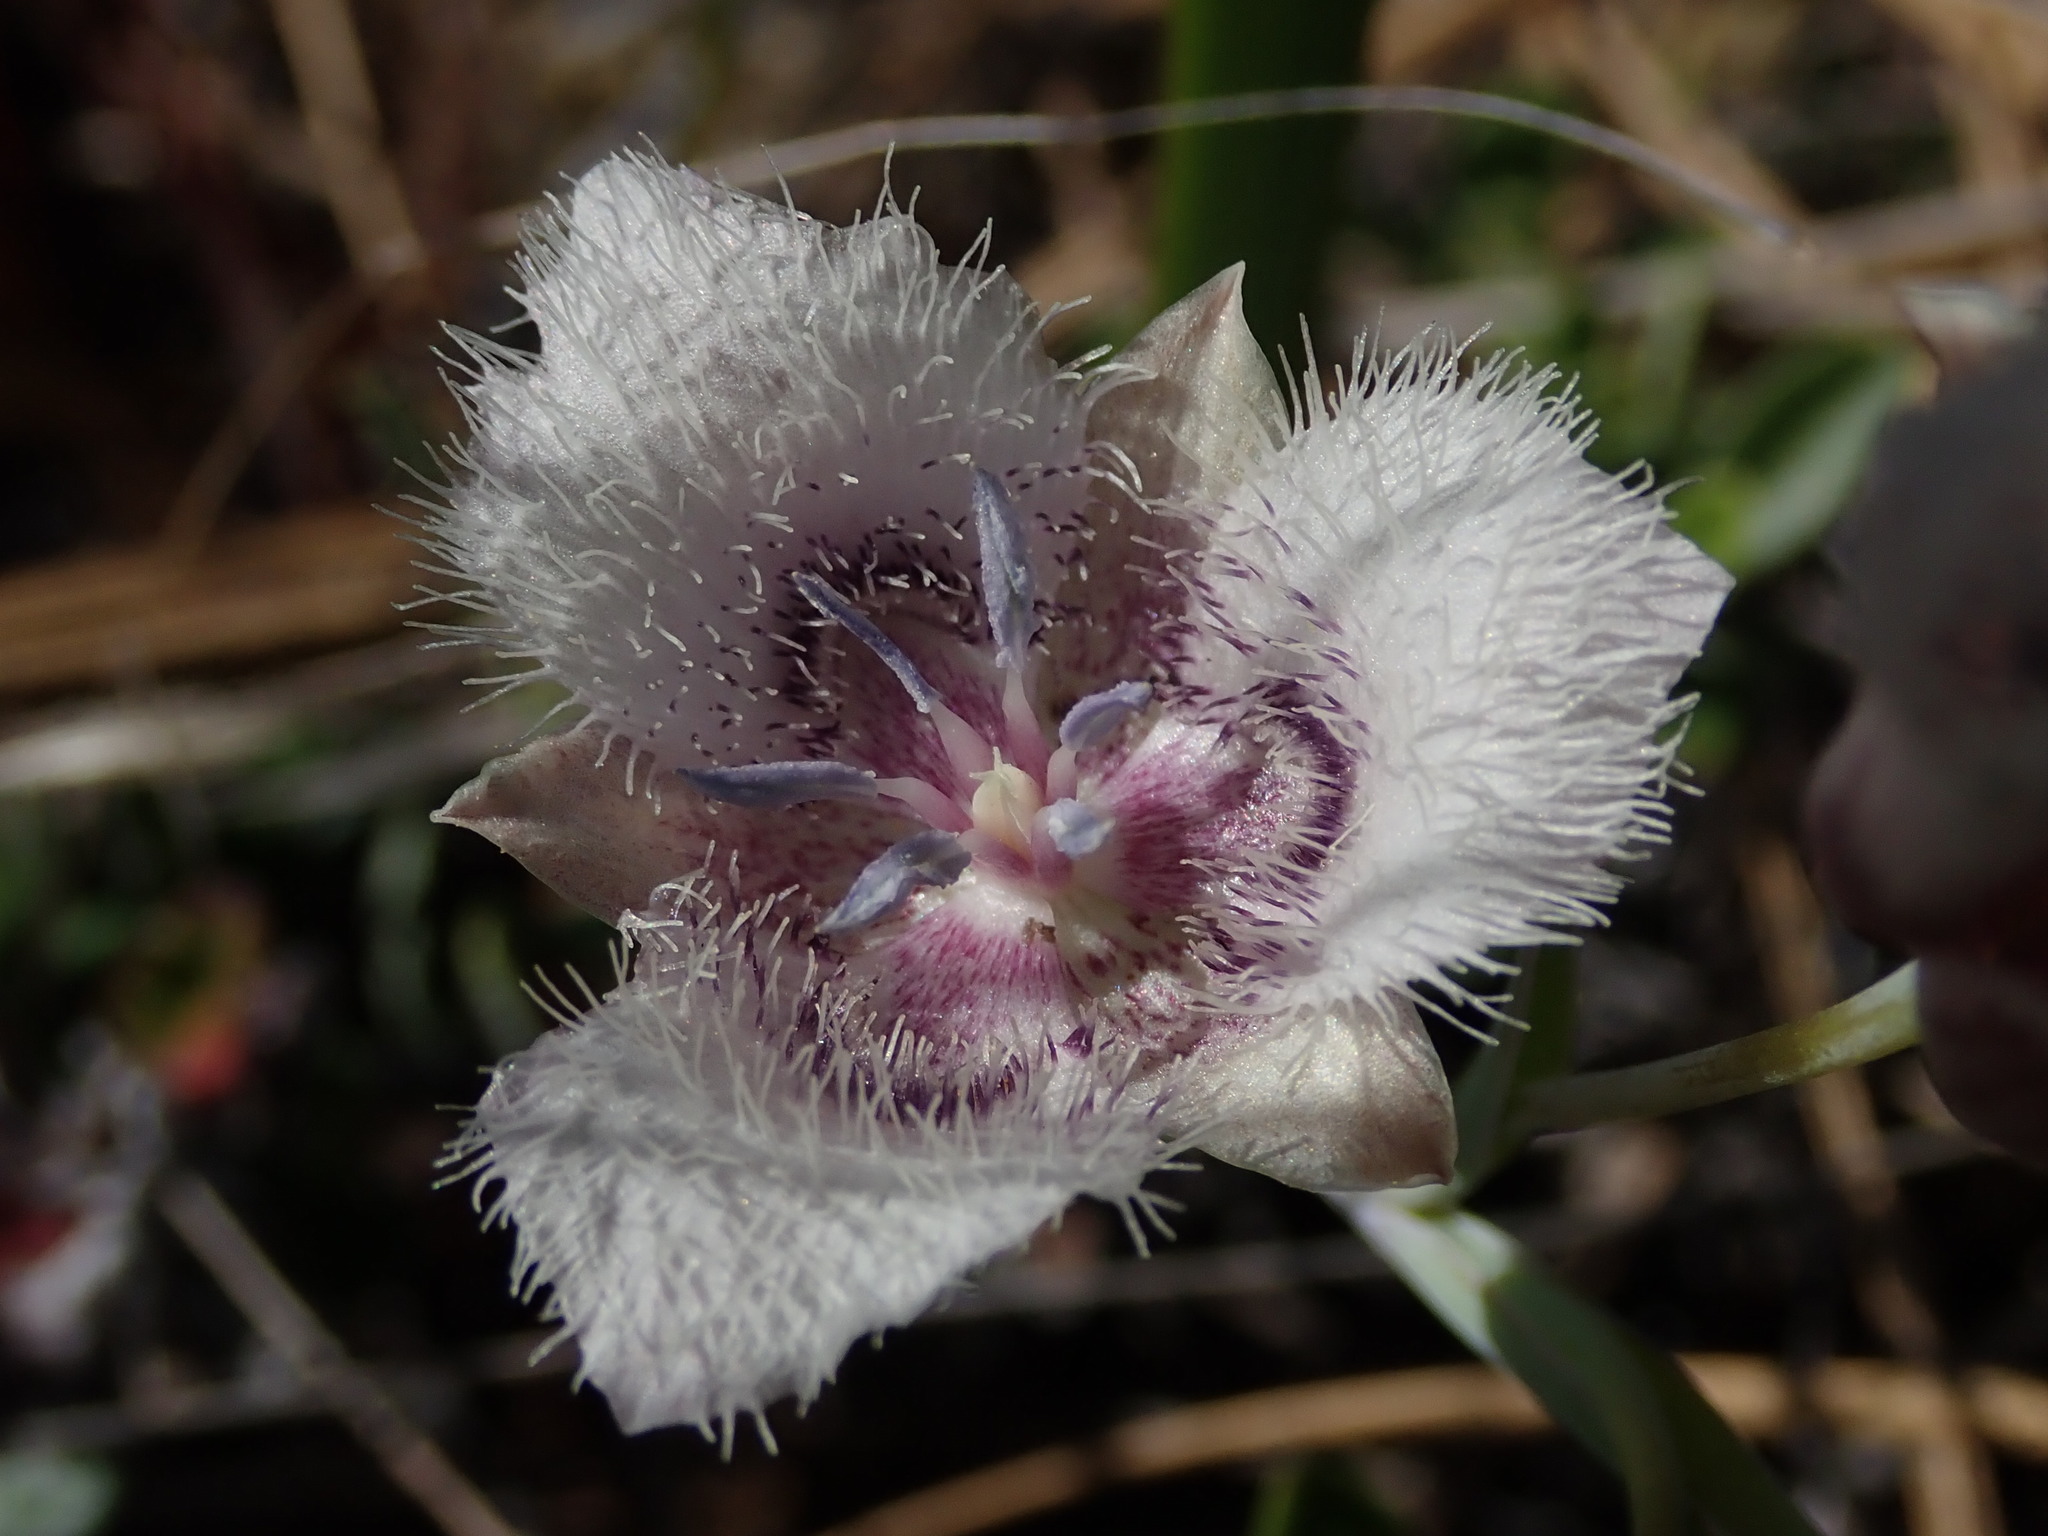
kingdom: Plantae
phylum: Tracheophyta
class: Liliopsida
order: Liliales
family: Liliaceae
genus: Calochortus
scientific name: Calochortus tolmiei
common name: Pussy-ears
